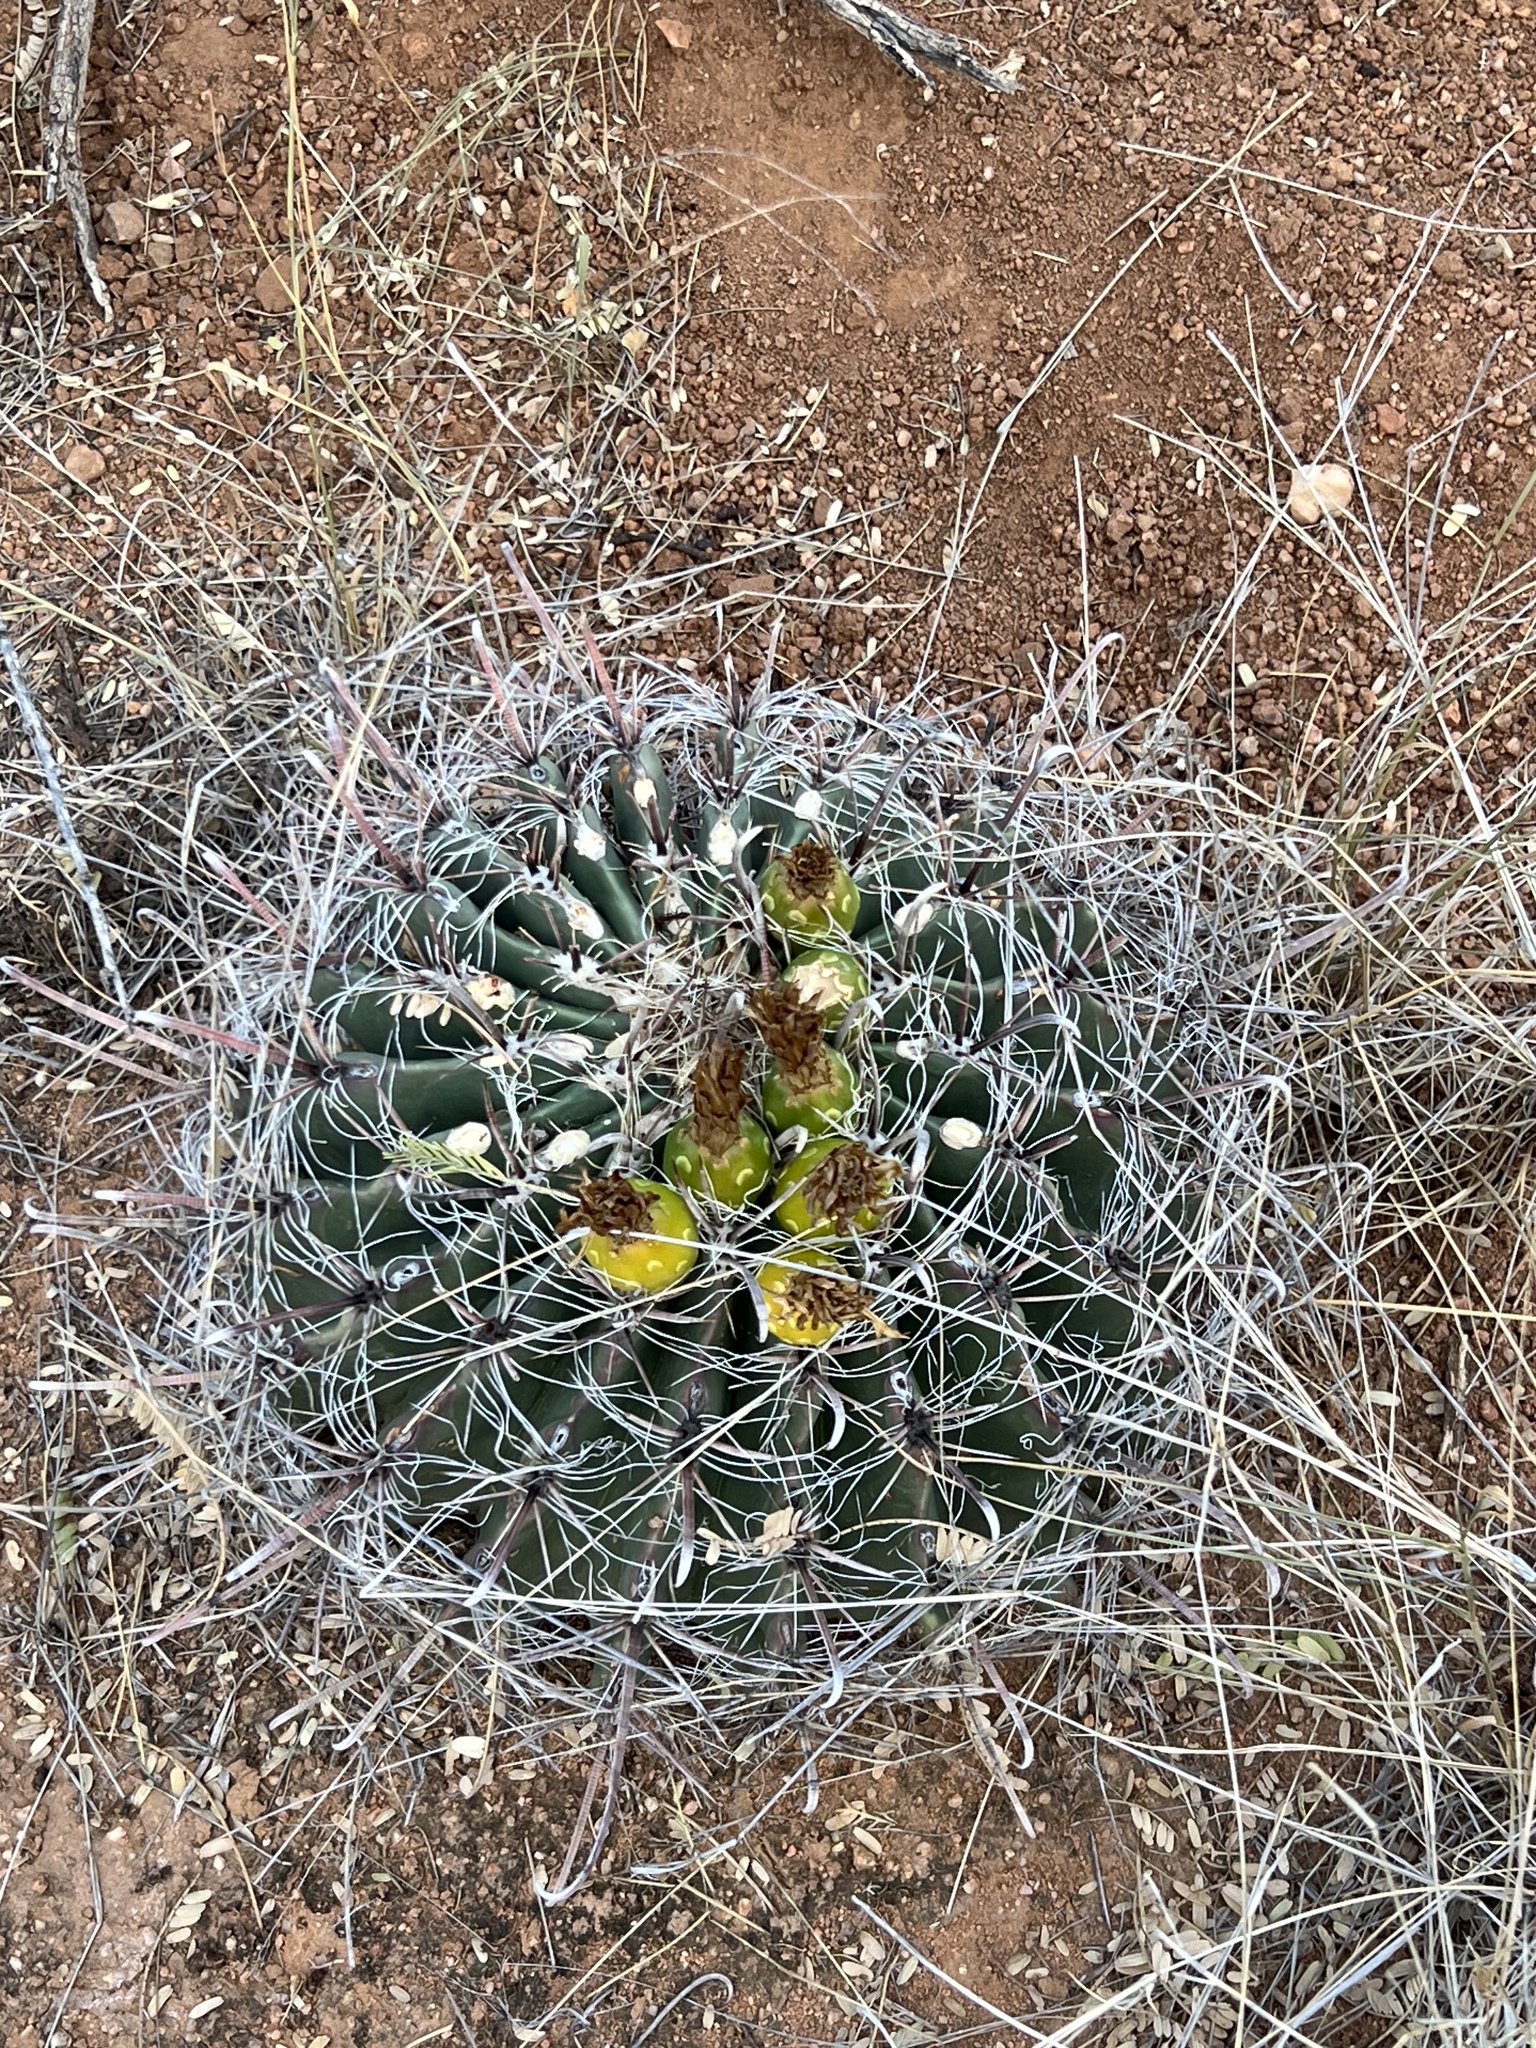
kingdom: Plantae
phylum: Tracheophyta
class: Magnoliopsida
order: Caryophyllales
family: Cactaceae
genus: Ferocactus
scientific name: Ferocactus wislizeni
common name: Candy barrel cactus
